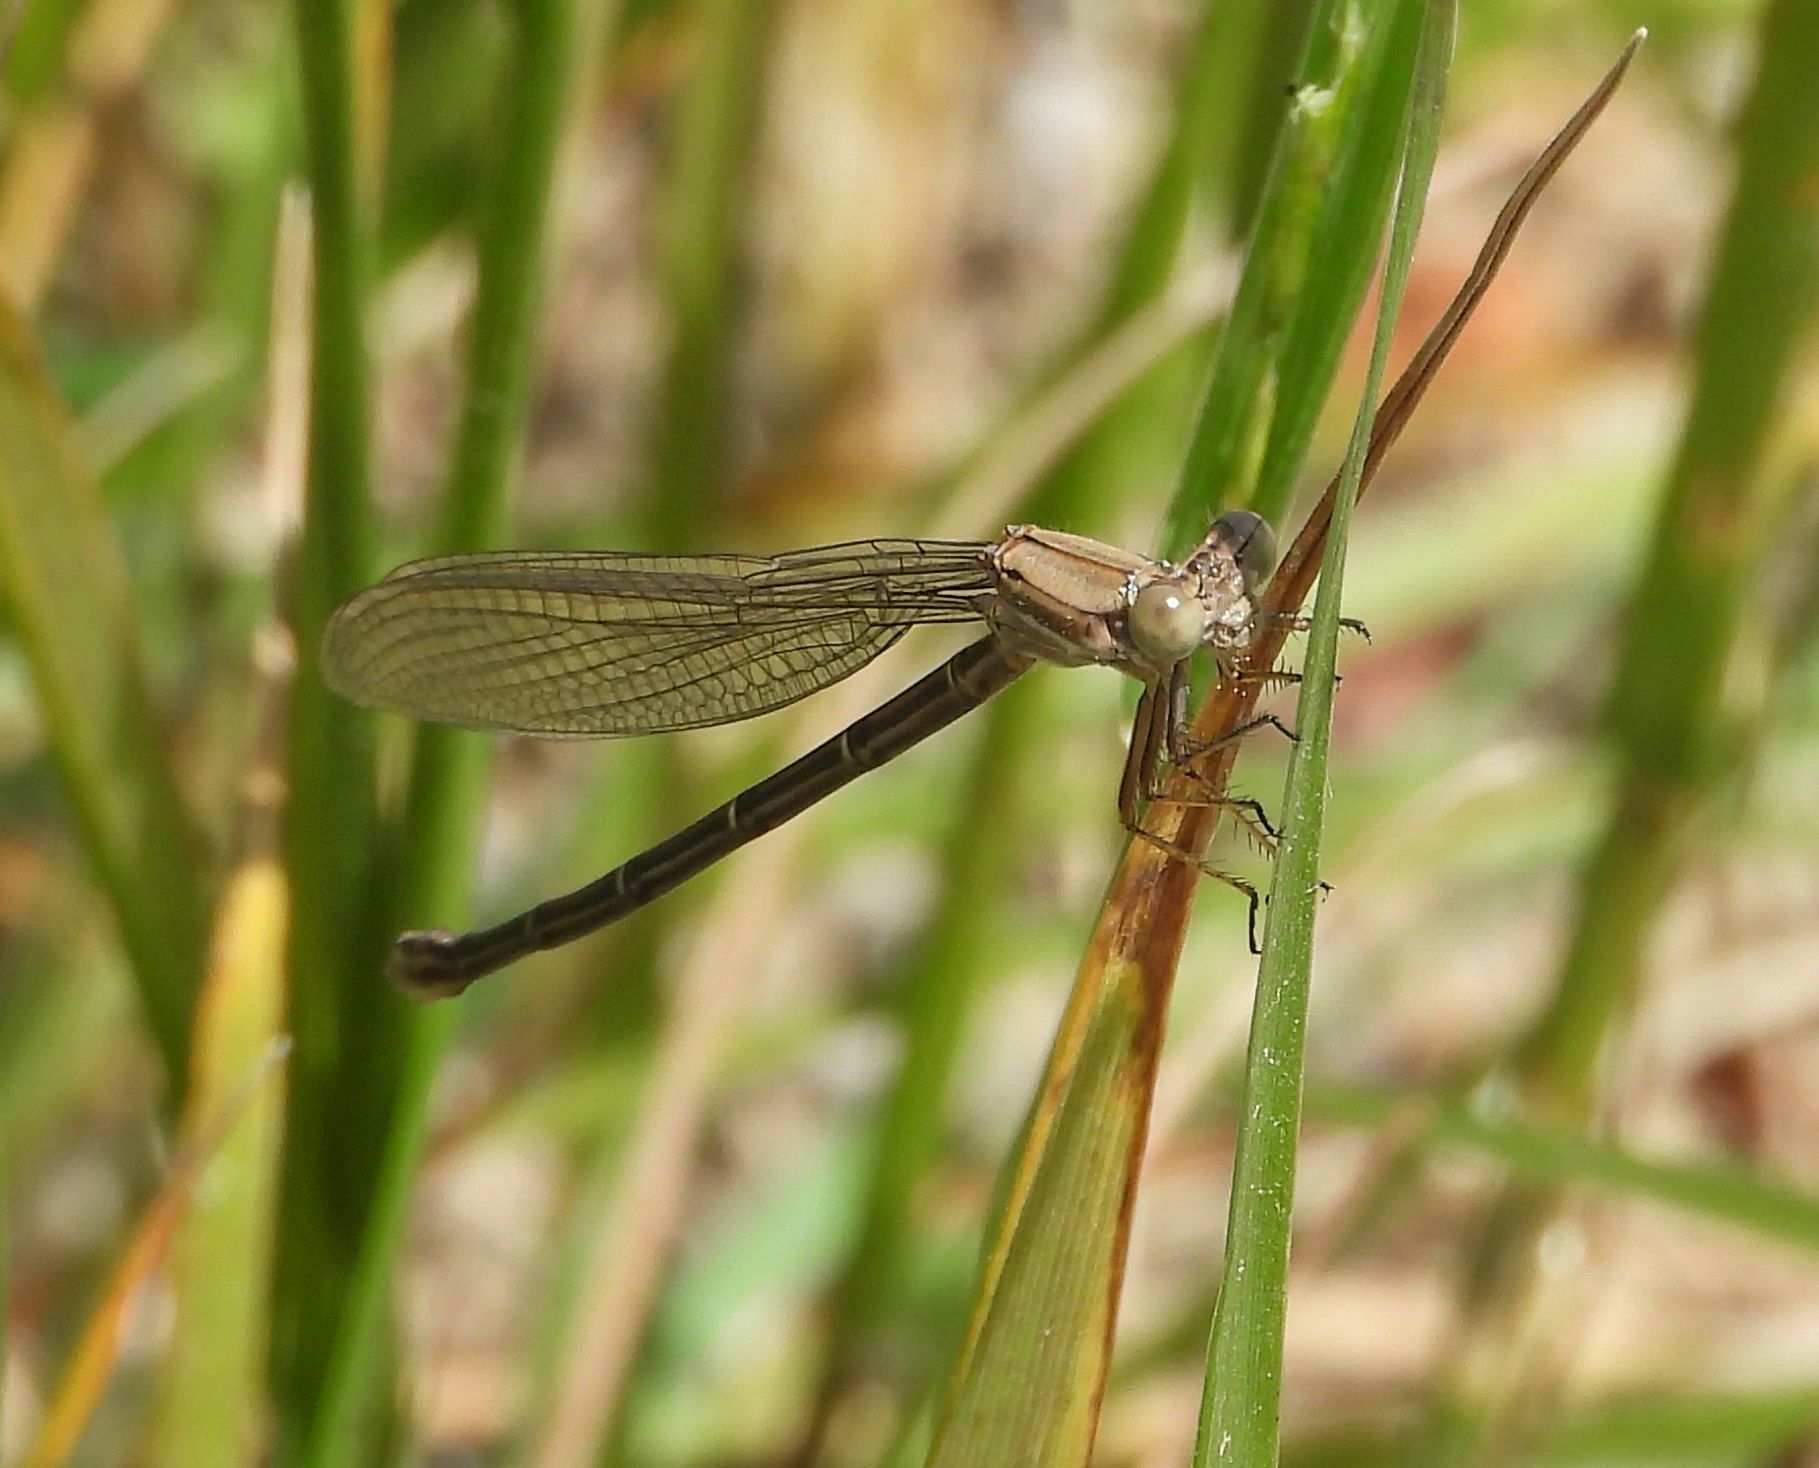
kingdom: Animalia
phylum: Arthropoda
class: Insecta
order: Odonata
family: Coenagrionidae
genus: Argia
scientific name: Argia moesta
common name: Powdered dancer
